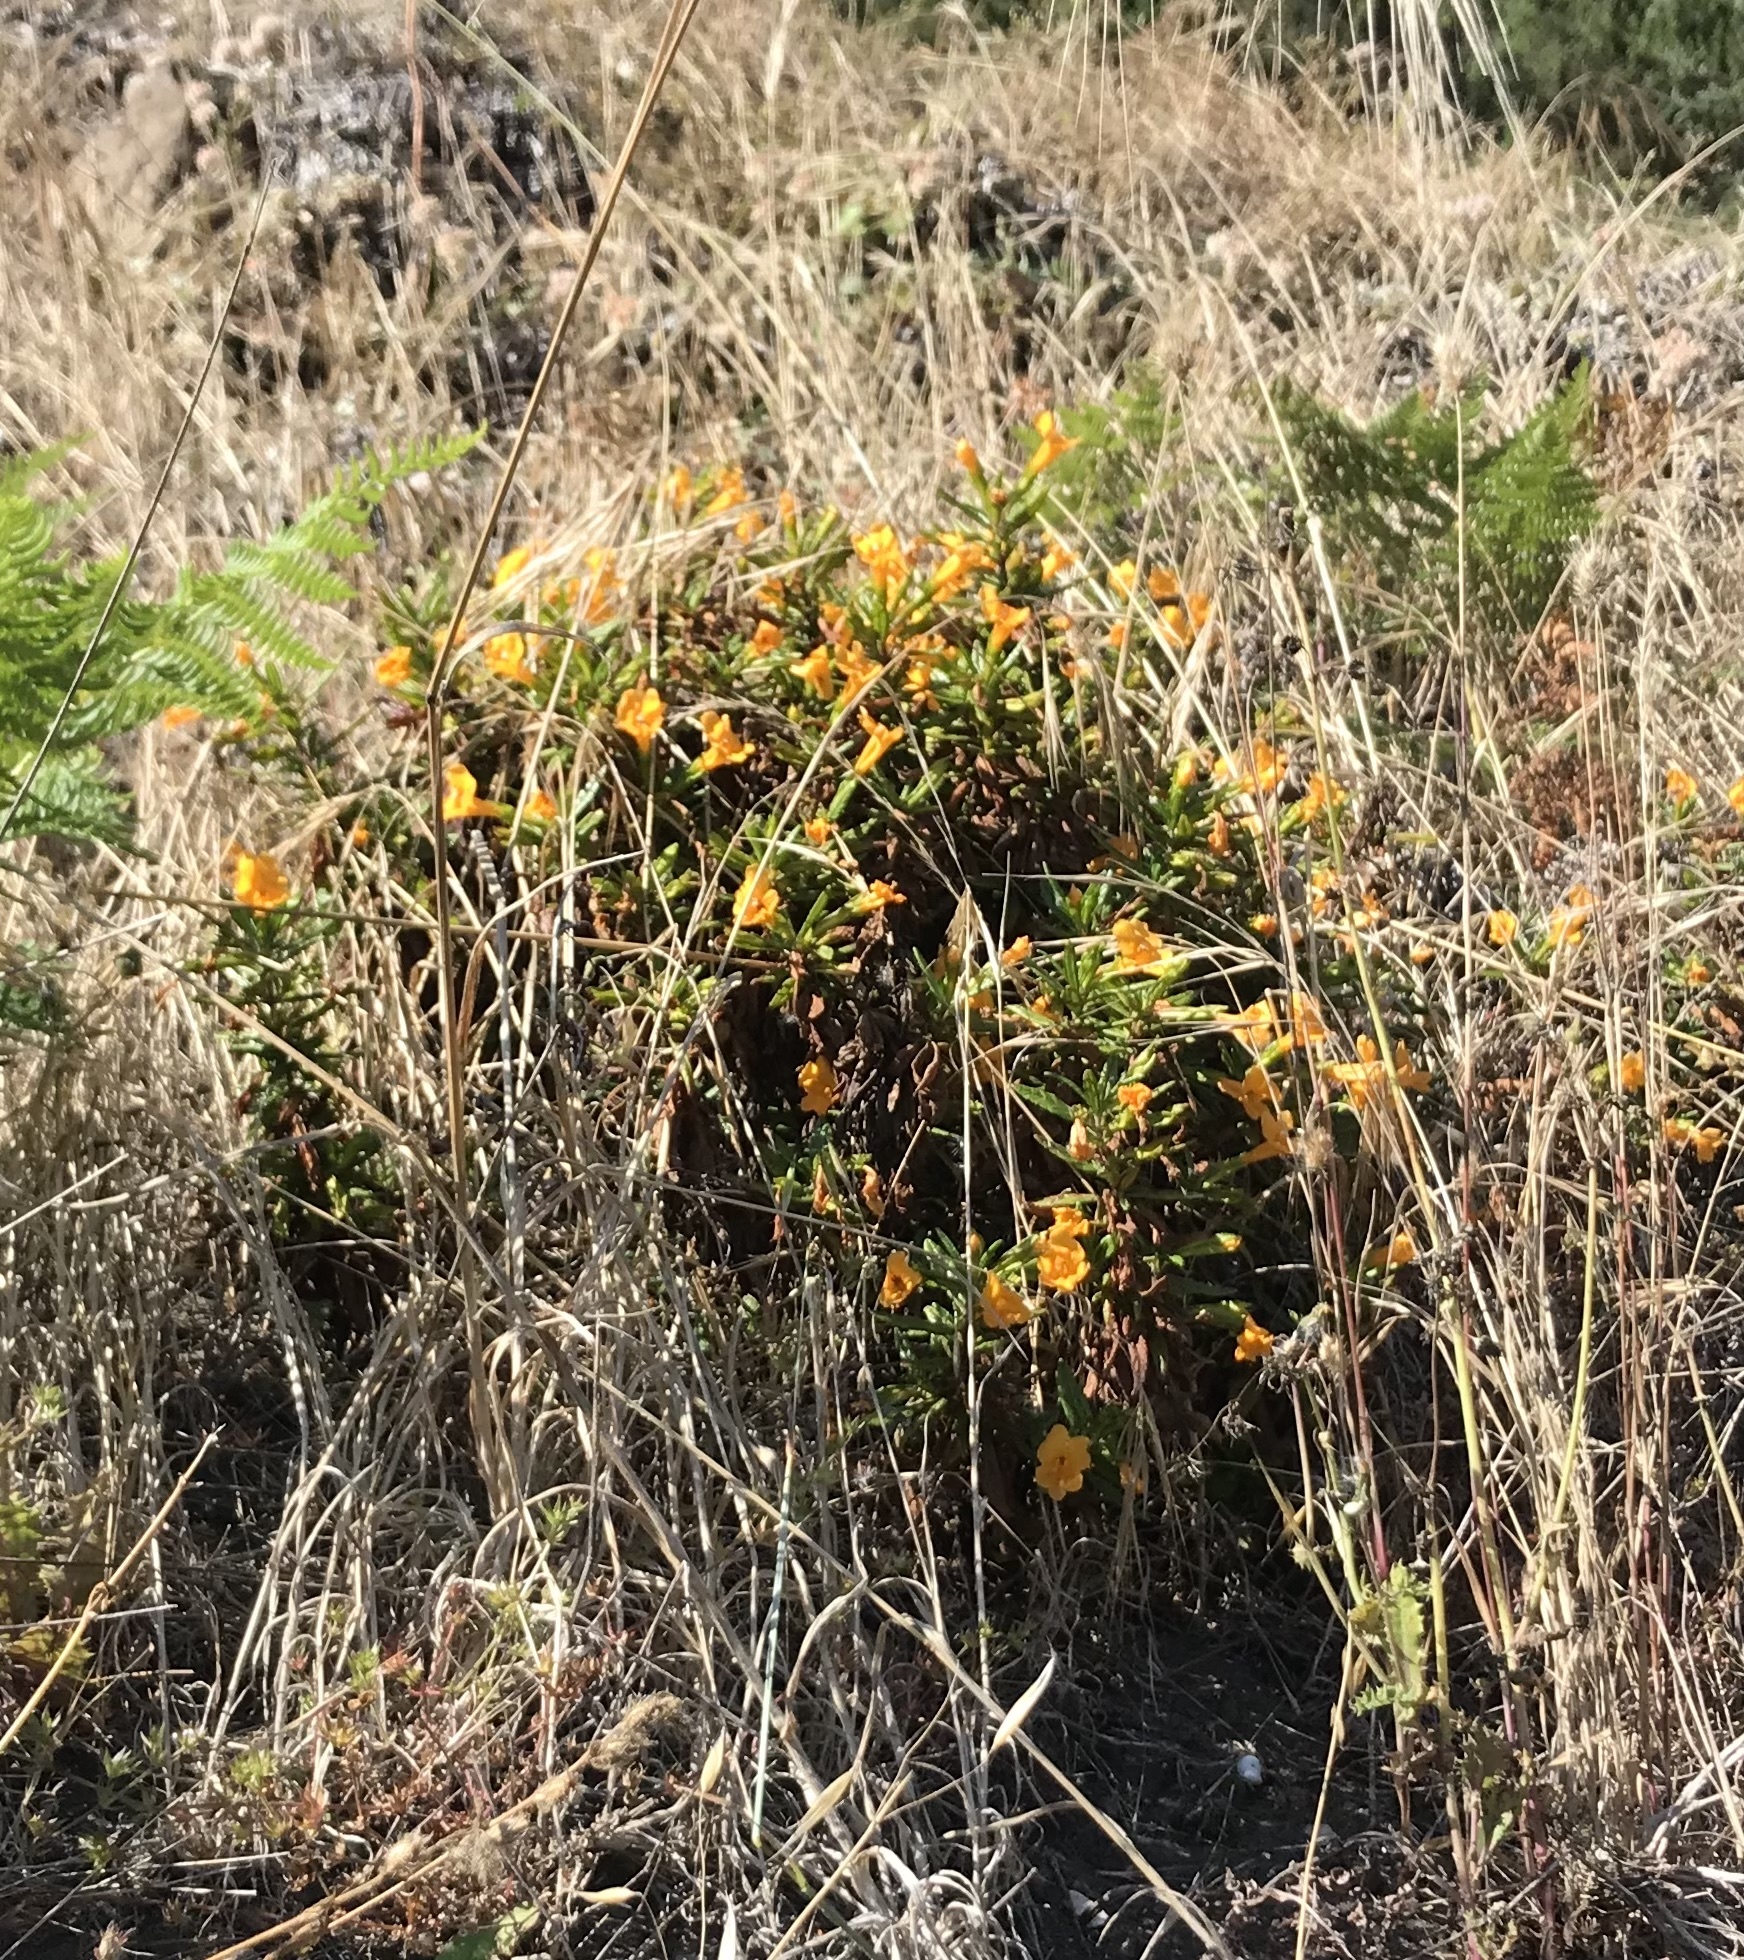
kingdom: Plantae
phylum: Tracheophyta
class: Magnoliopsida
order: Lamiales
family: Phrymaceae
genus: Diplacus
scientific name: Diplacus aurantiacus
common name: Bush monkey-flower
